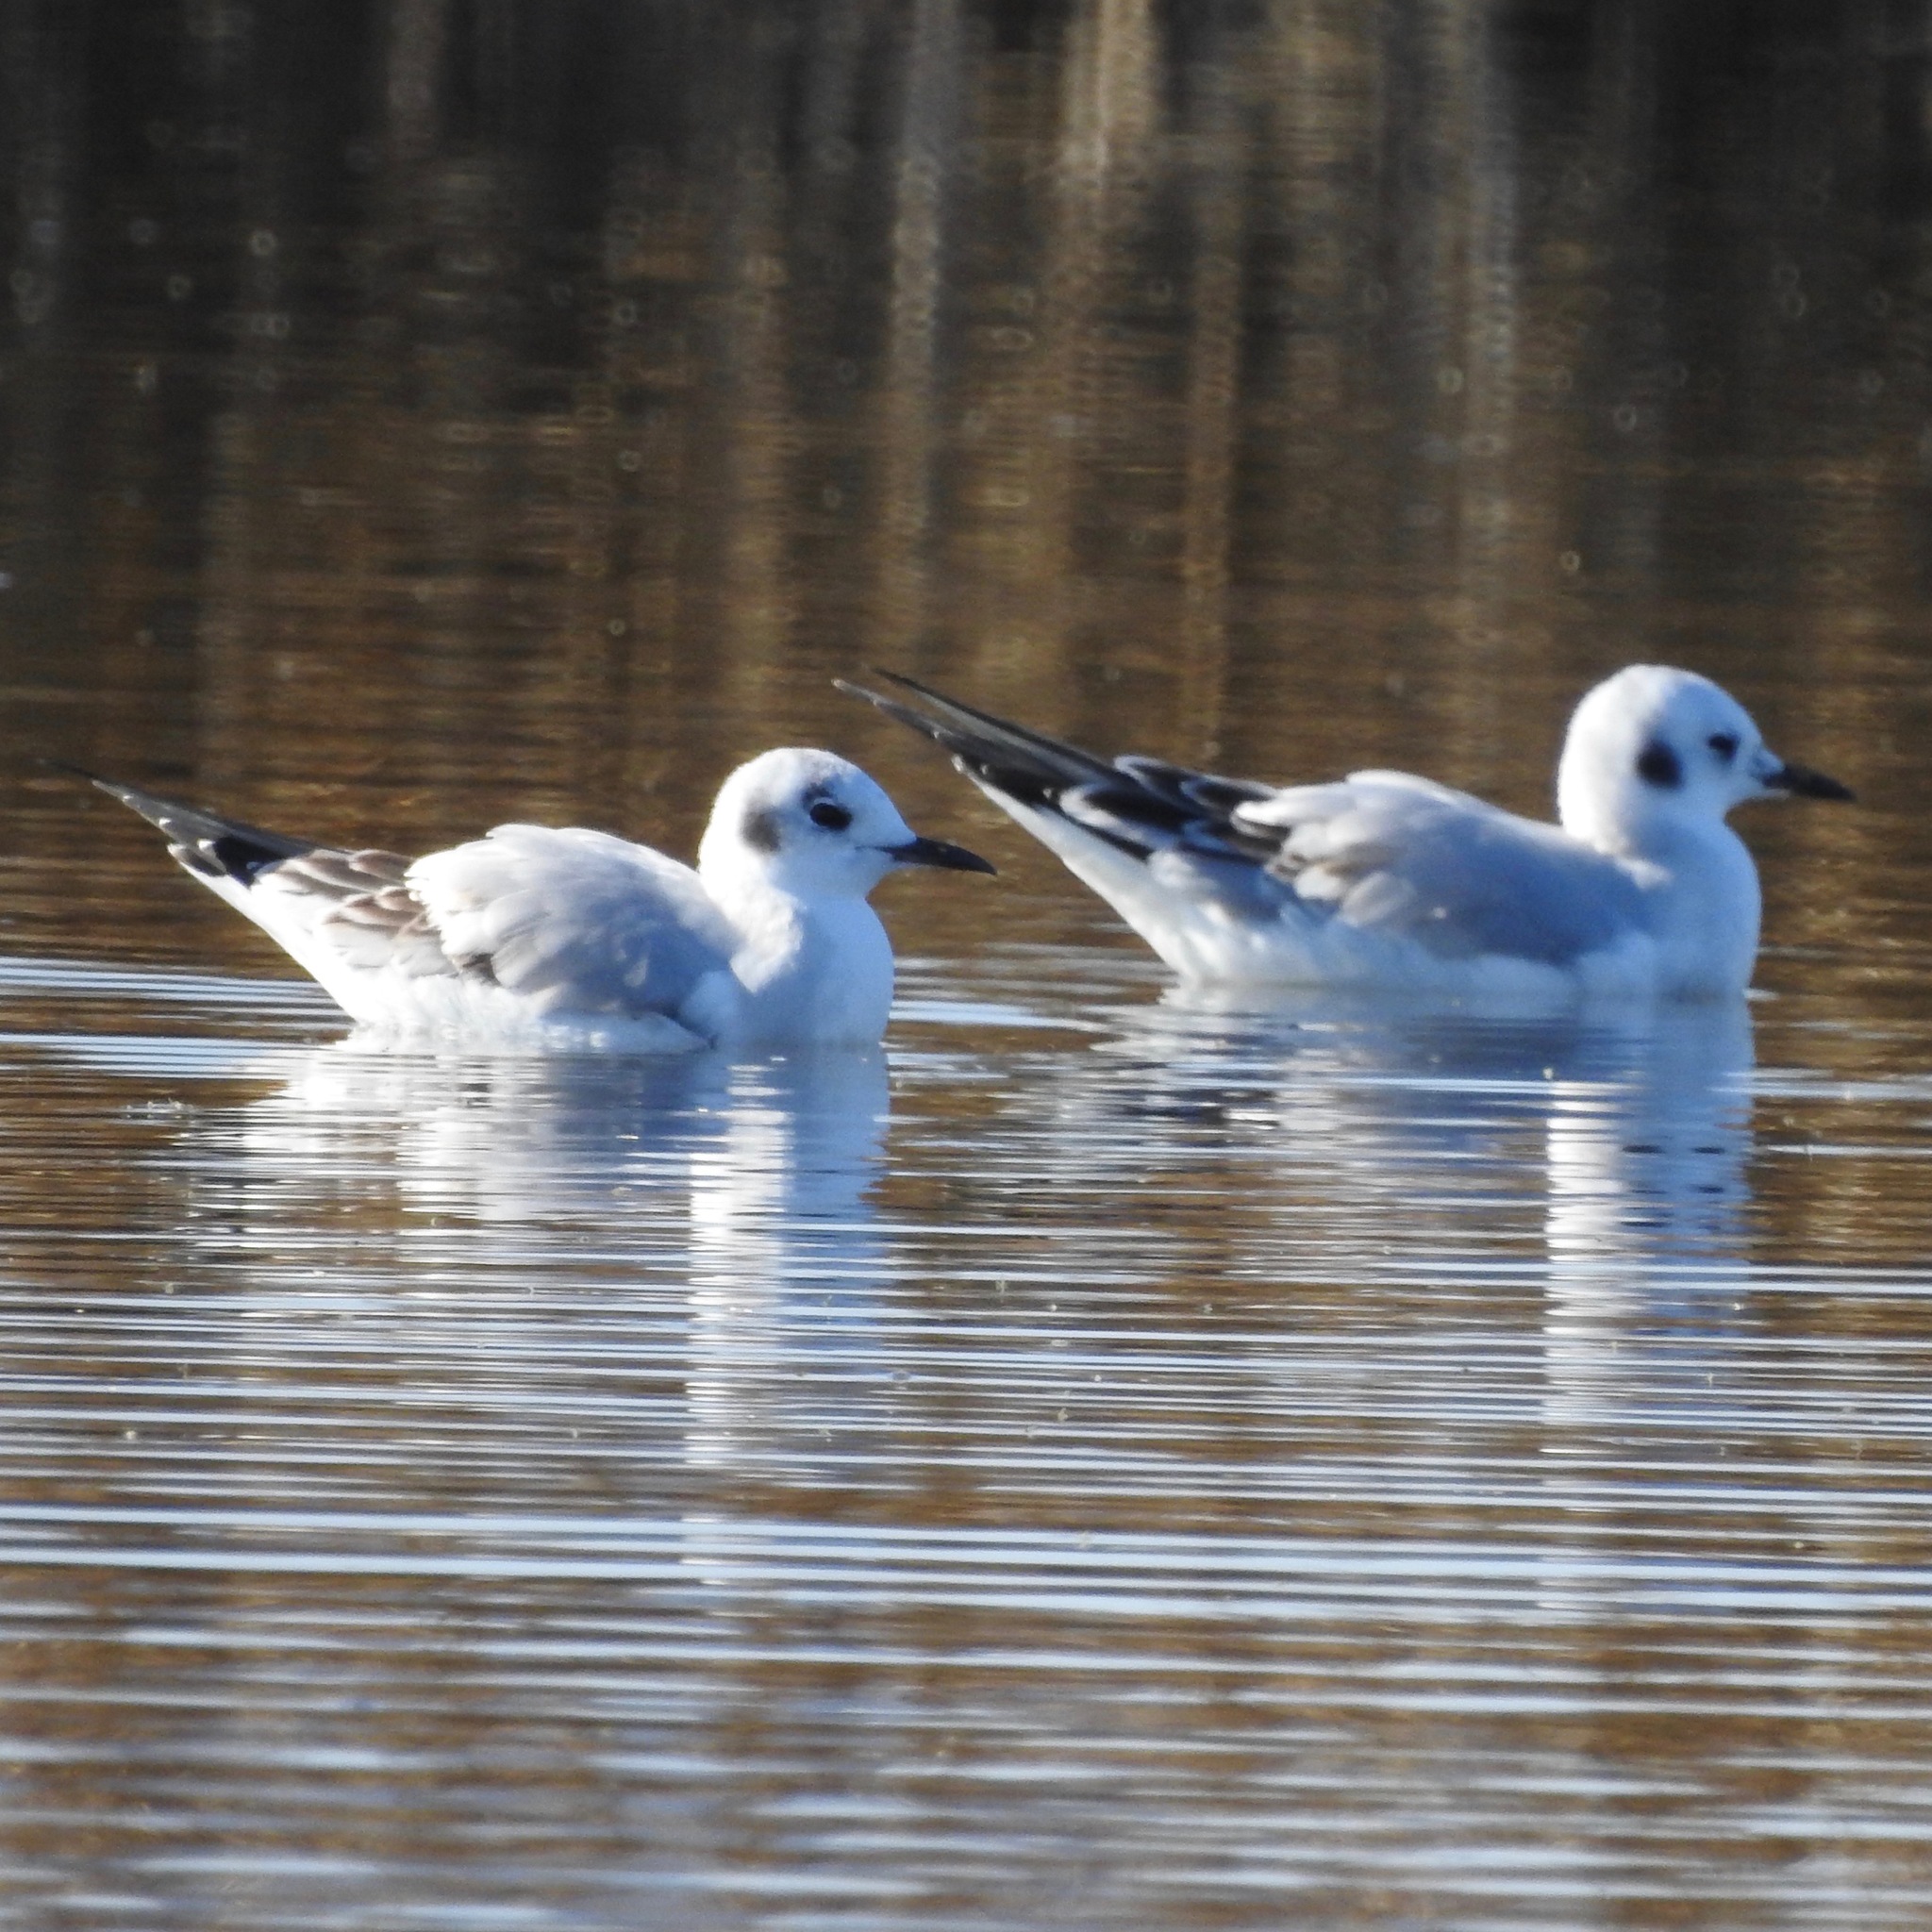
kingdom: Animalia
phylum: Chordata
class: Aves
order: Charadriiformes
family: Laridae
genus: Chroicocephalus
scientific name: Chroicocephalus philadelphia
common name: Bonaparte's gull
